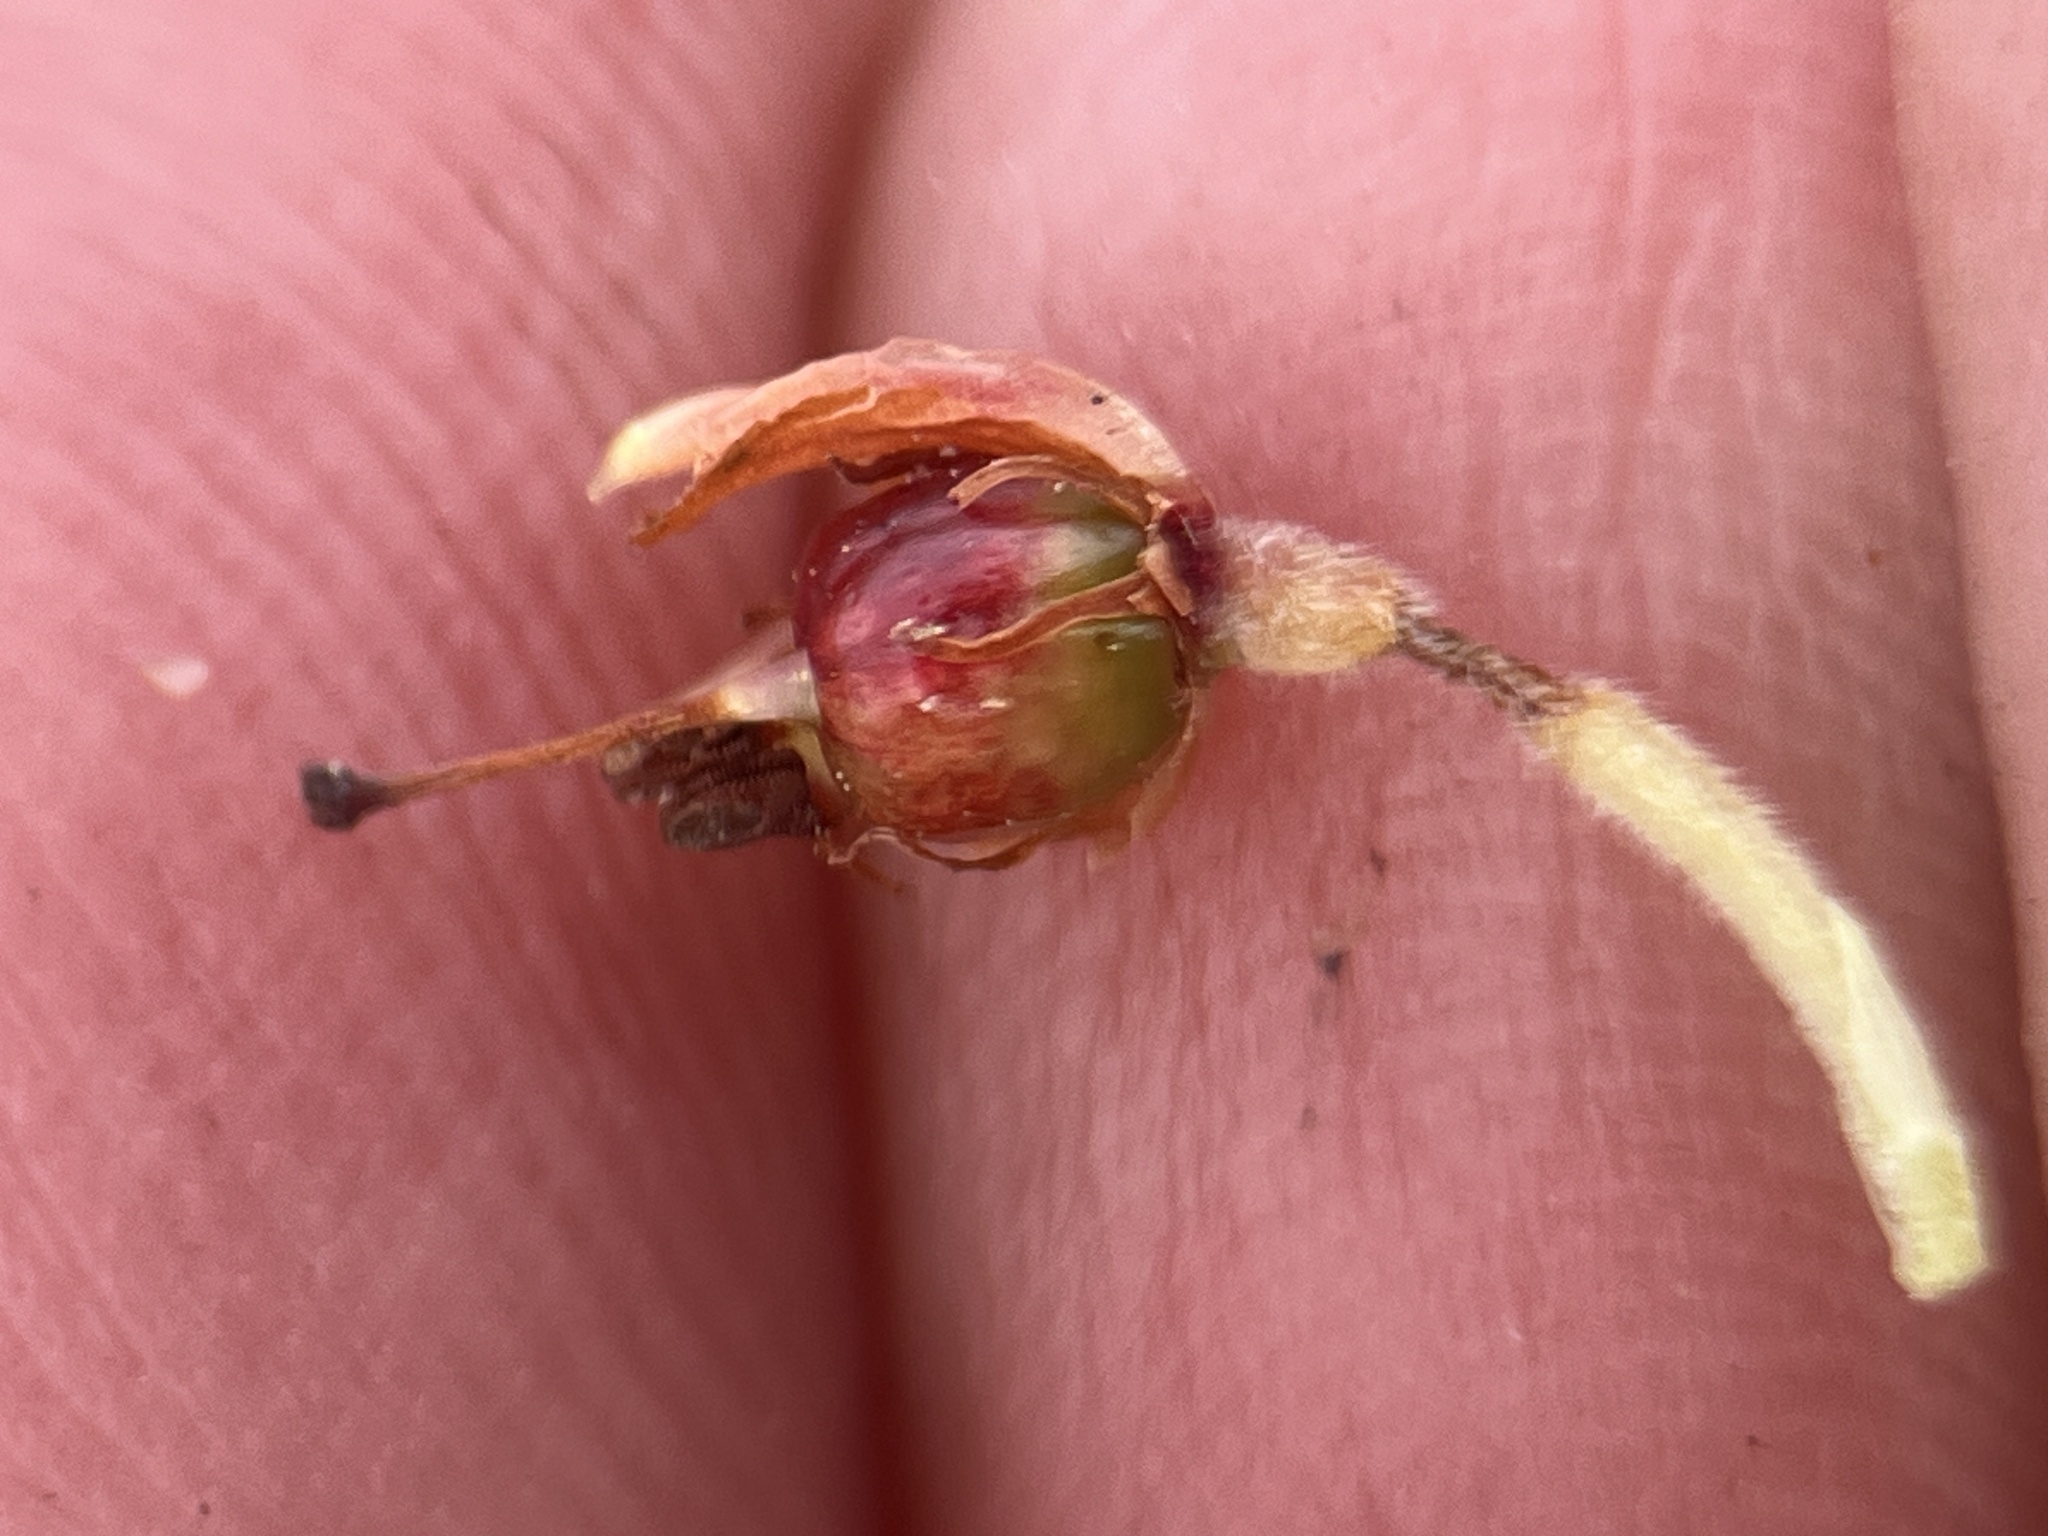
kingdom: Plantae
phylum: Tracheophyta
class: Magnoliopsida
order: Ericales
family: Ericaceae
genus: Erica
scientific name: Erica pulvinata
